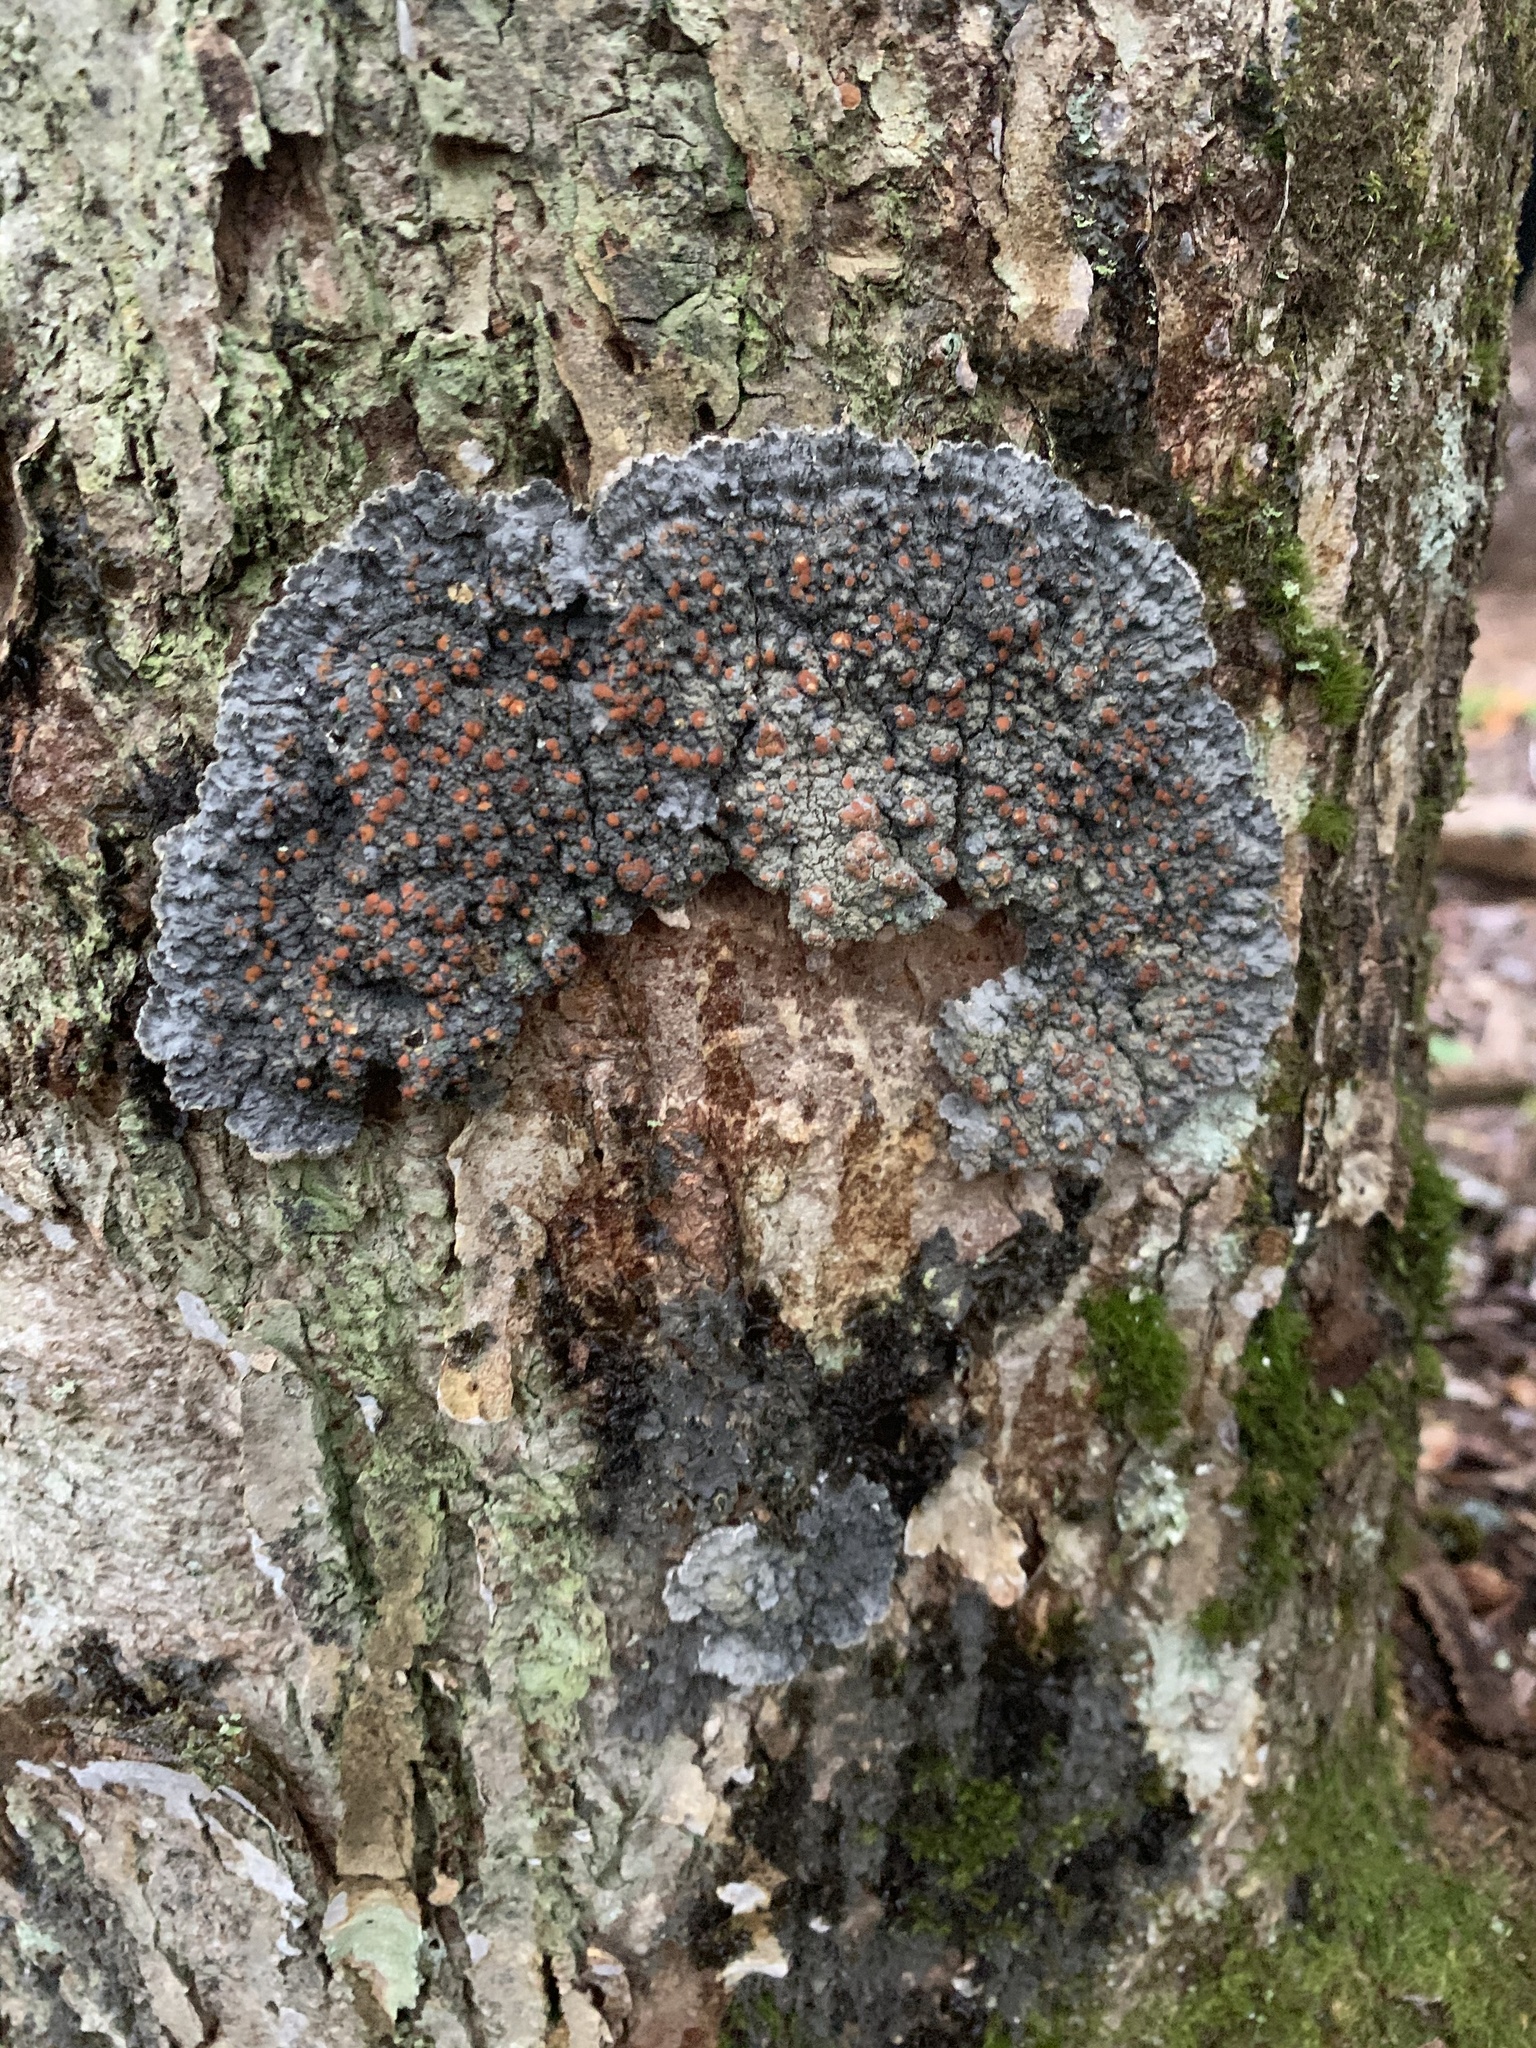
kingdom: Fungi
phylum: Ascomycota
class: Lecanoromycetes
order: Peltigerales
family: Pannariaceae
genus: Pectenia
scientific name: Pectenia plumbea
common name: Bladder stalks
